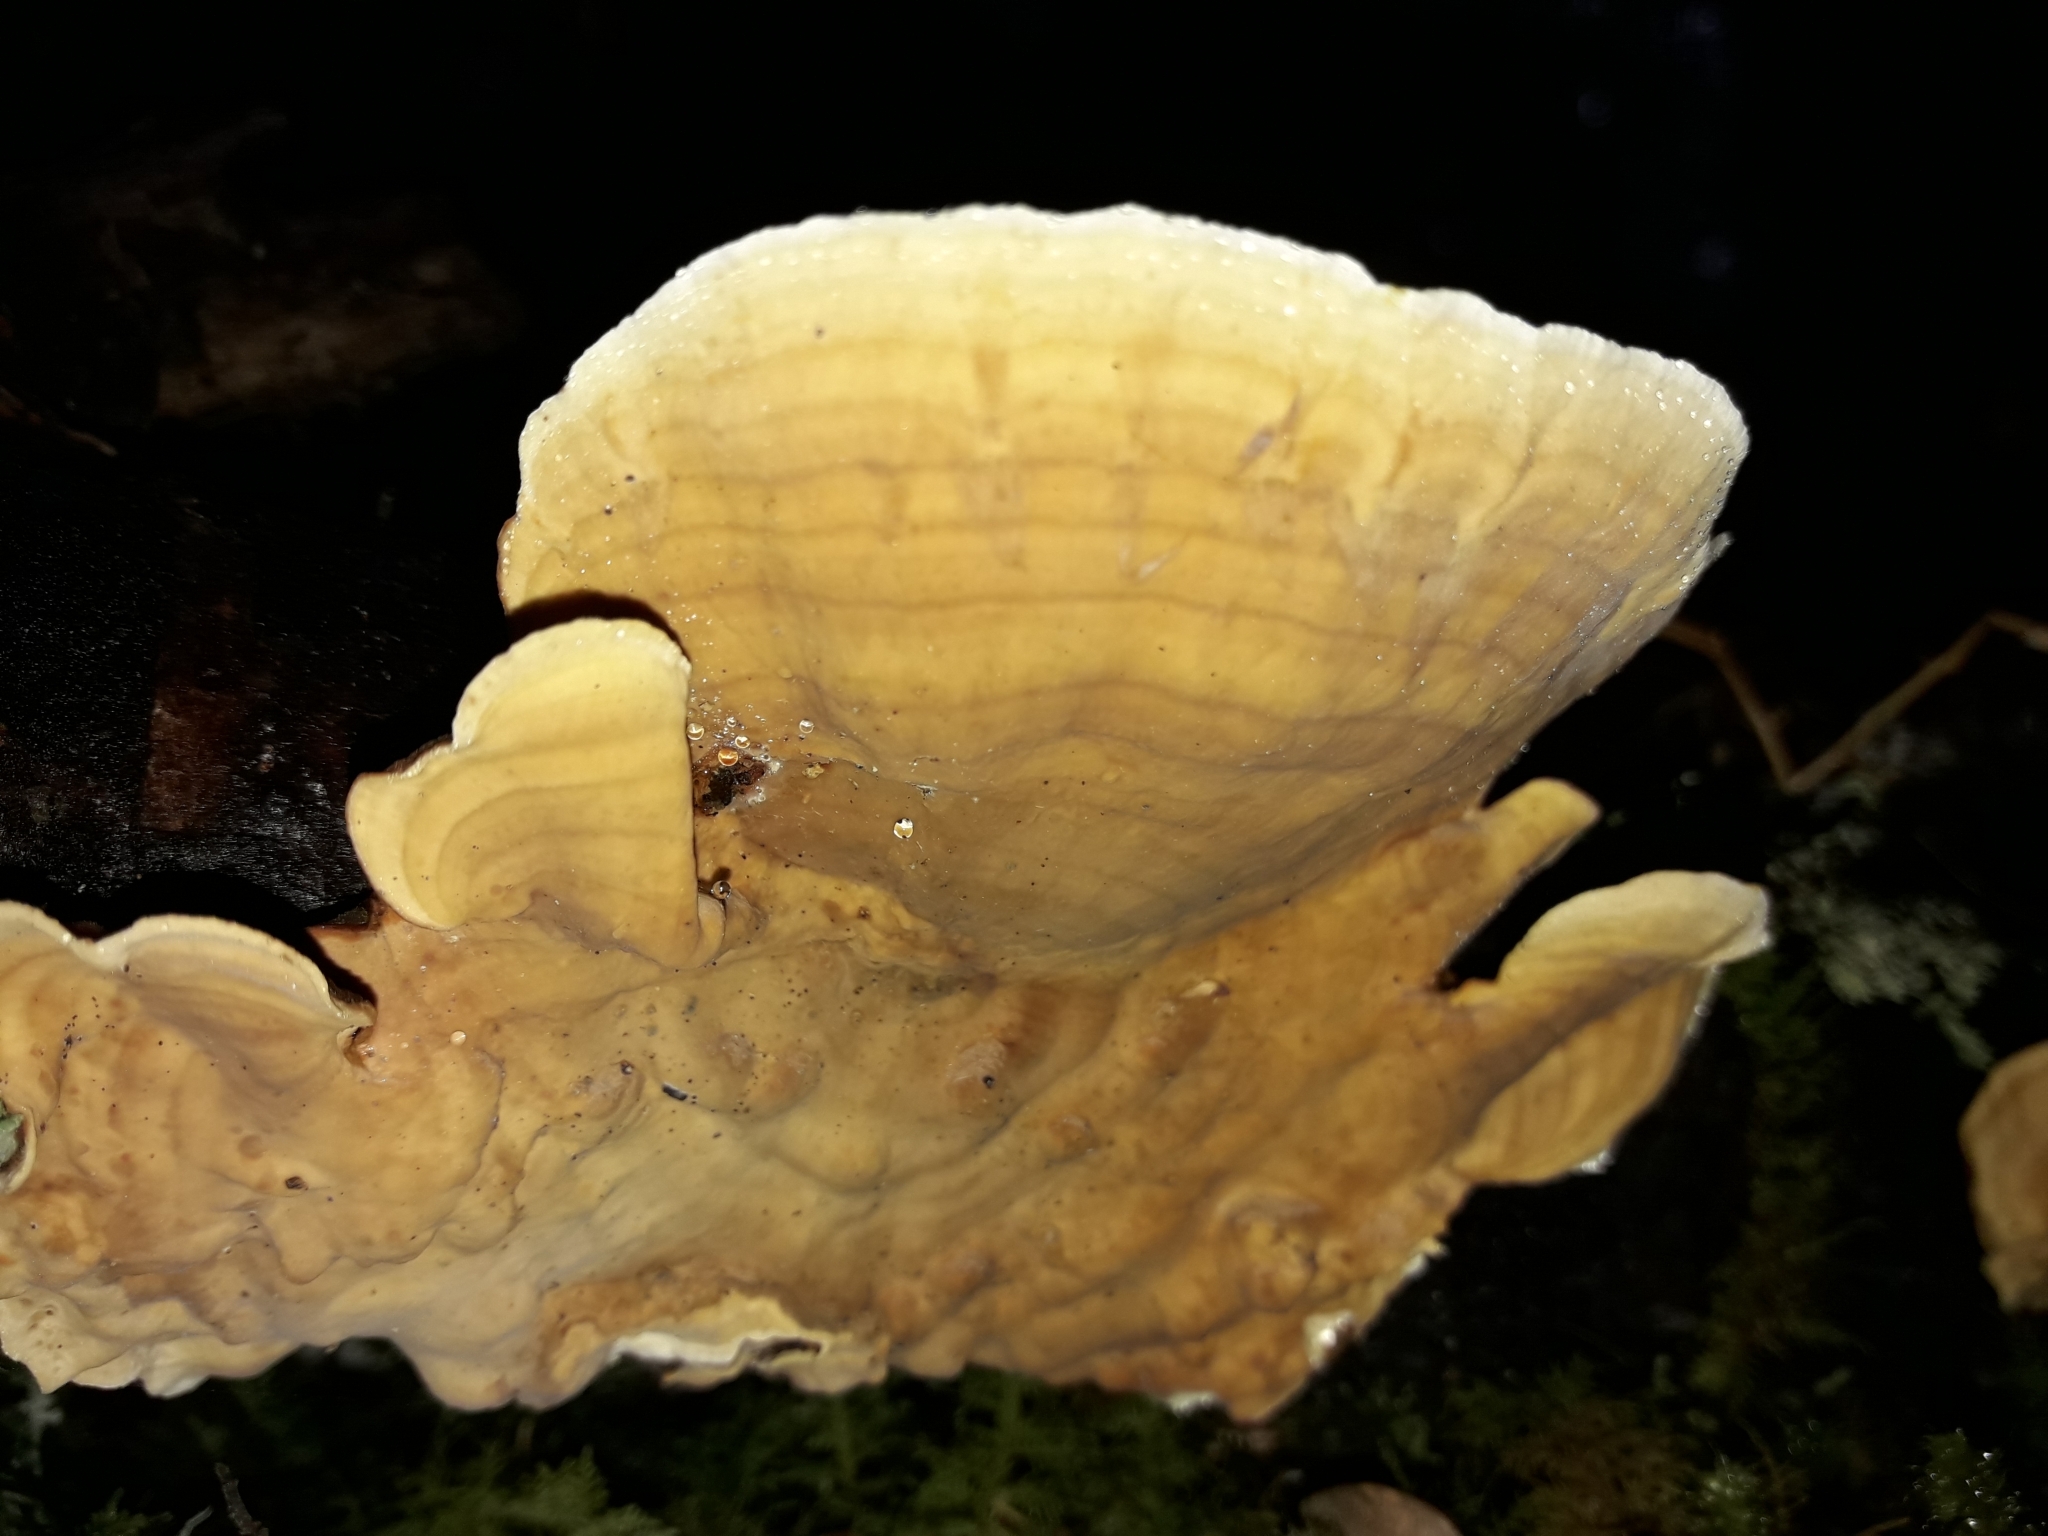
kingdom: Fungi
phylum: Basidiomycota
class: Agaricomycetes
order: Russulales
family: Stereaceae
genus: Stereum
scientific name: Stereum versicolor
